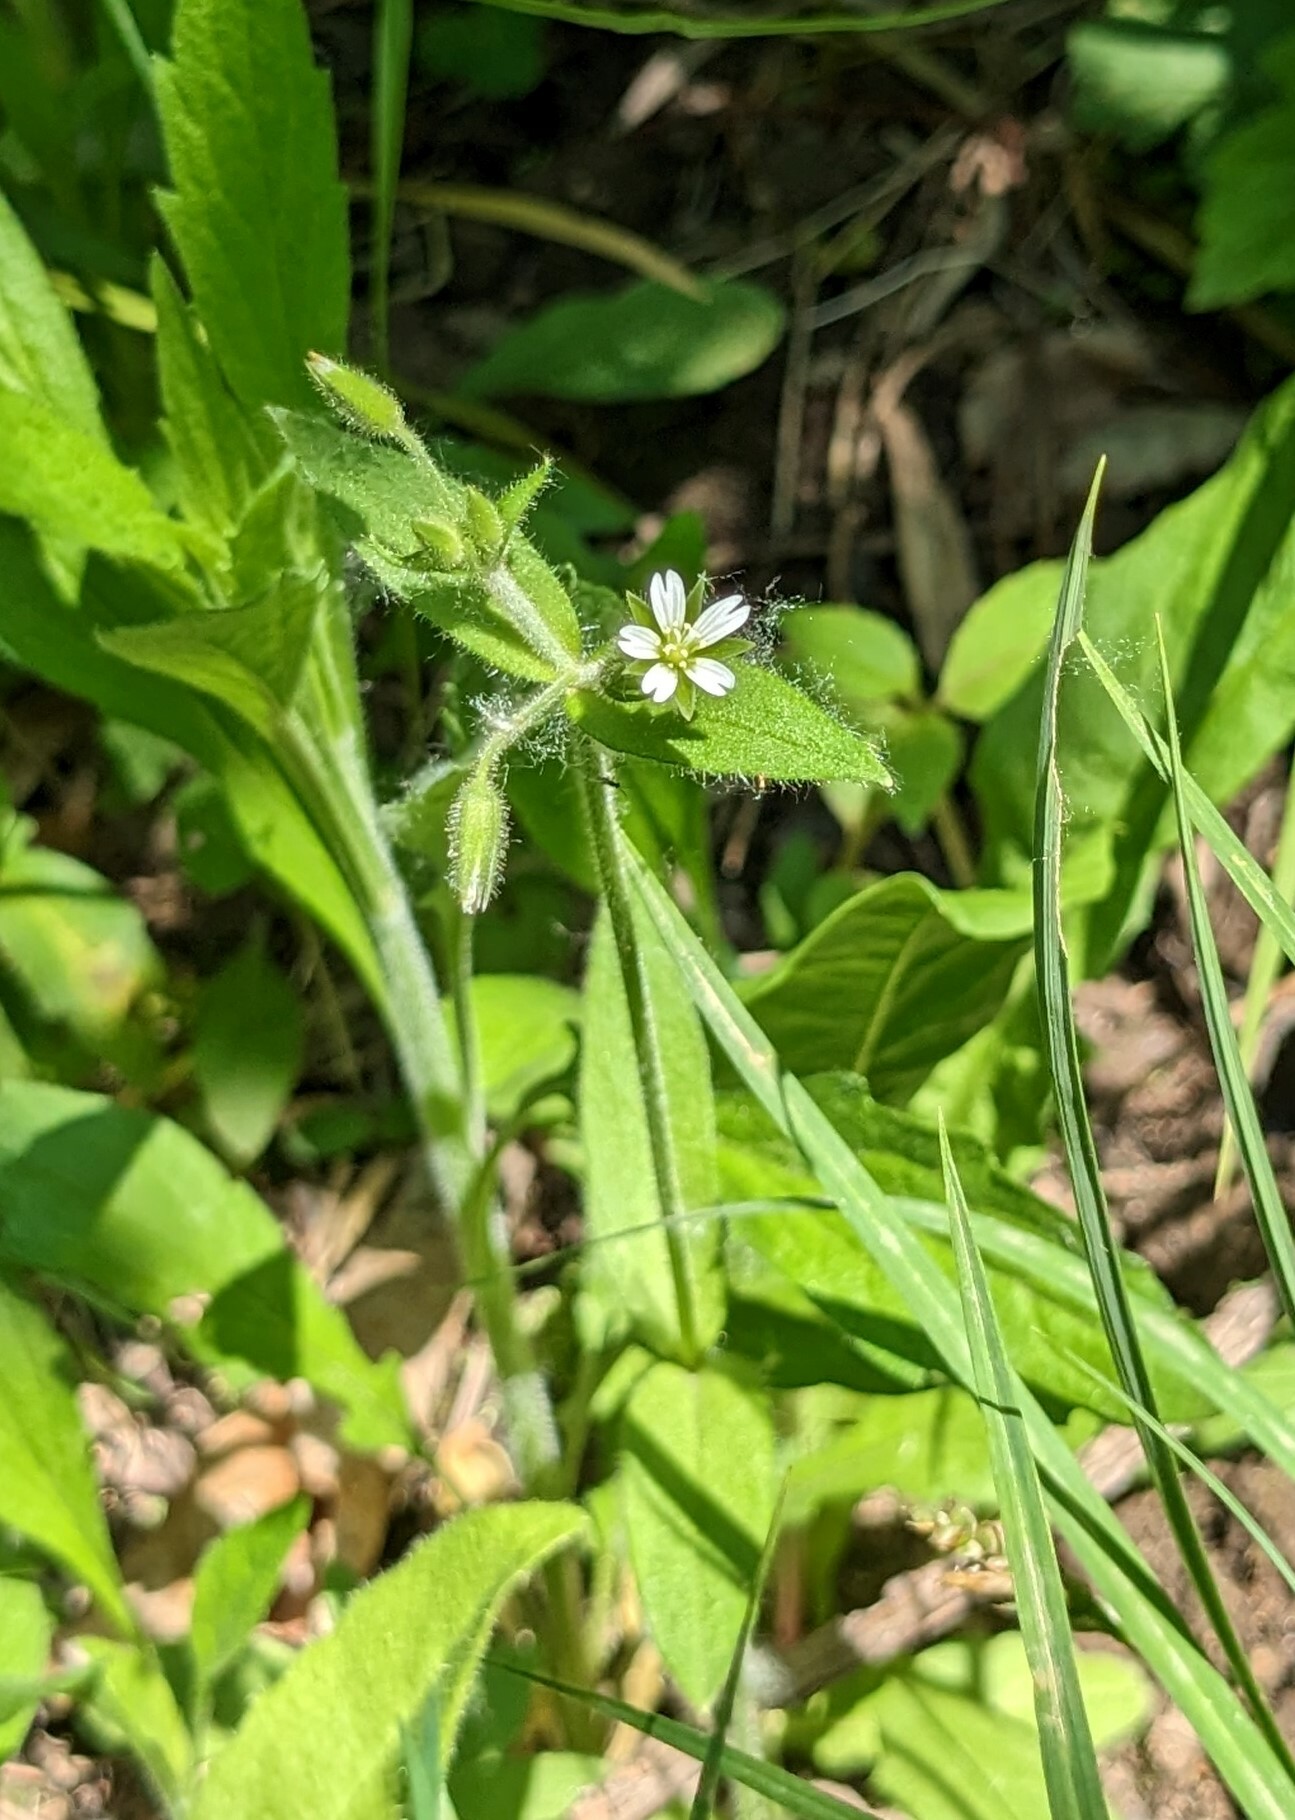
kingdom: Plantae
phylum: Tracheophyta
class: Magnoliopsida
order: Caryophyllales
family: Caryophyllaceae
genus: Cerastium
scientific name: Cerastium holosteoides
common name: Big chickweed
